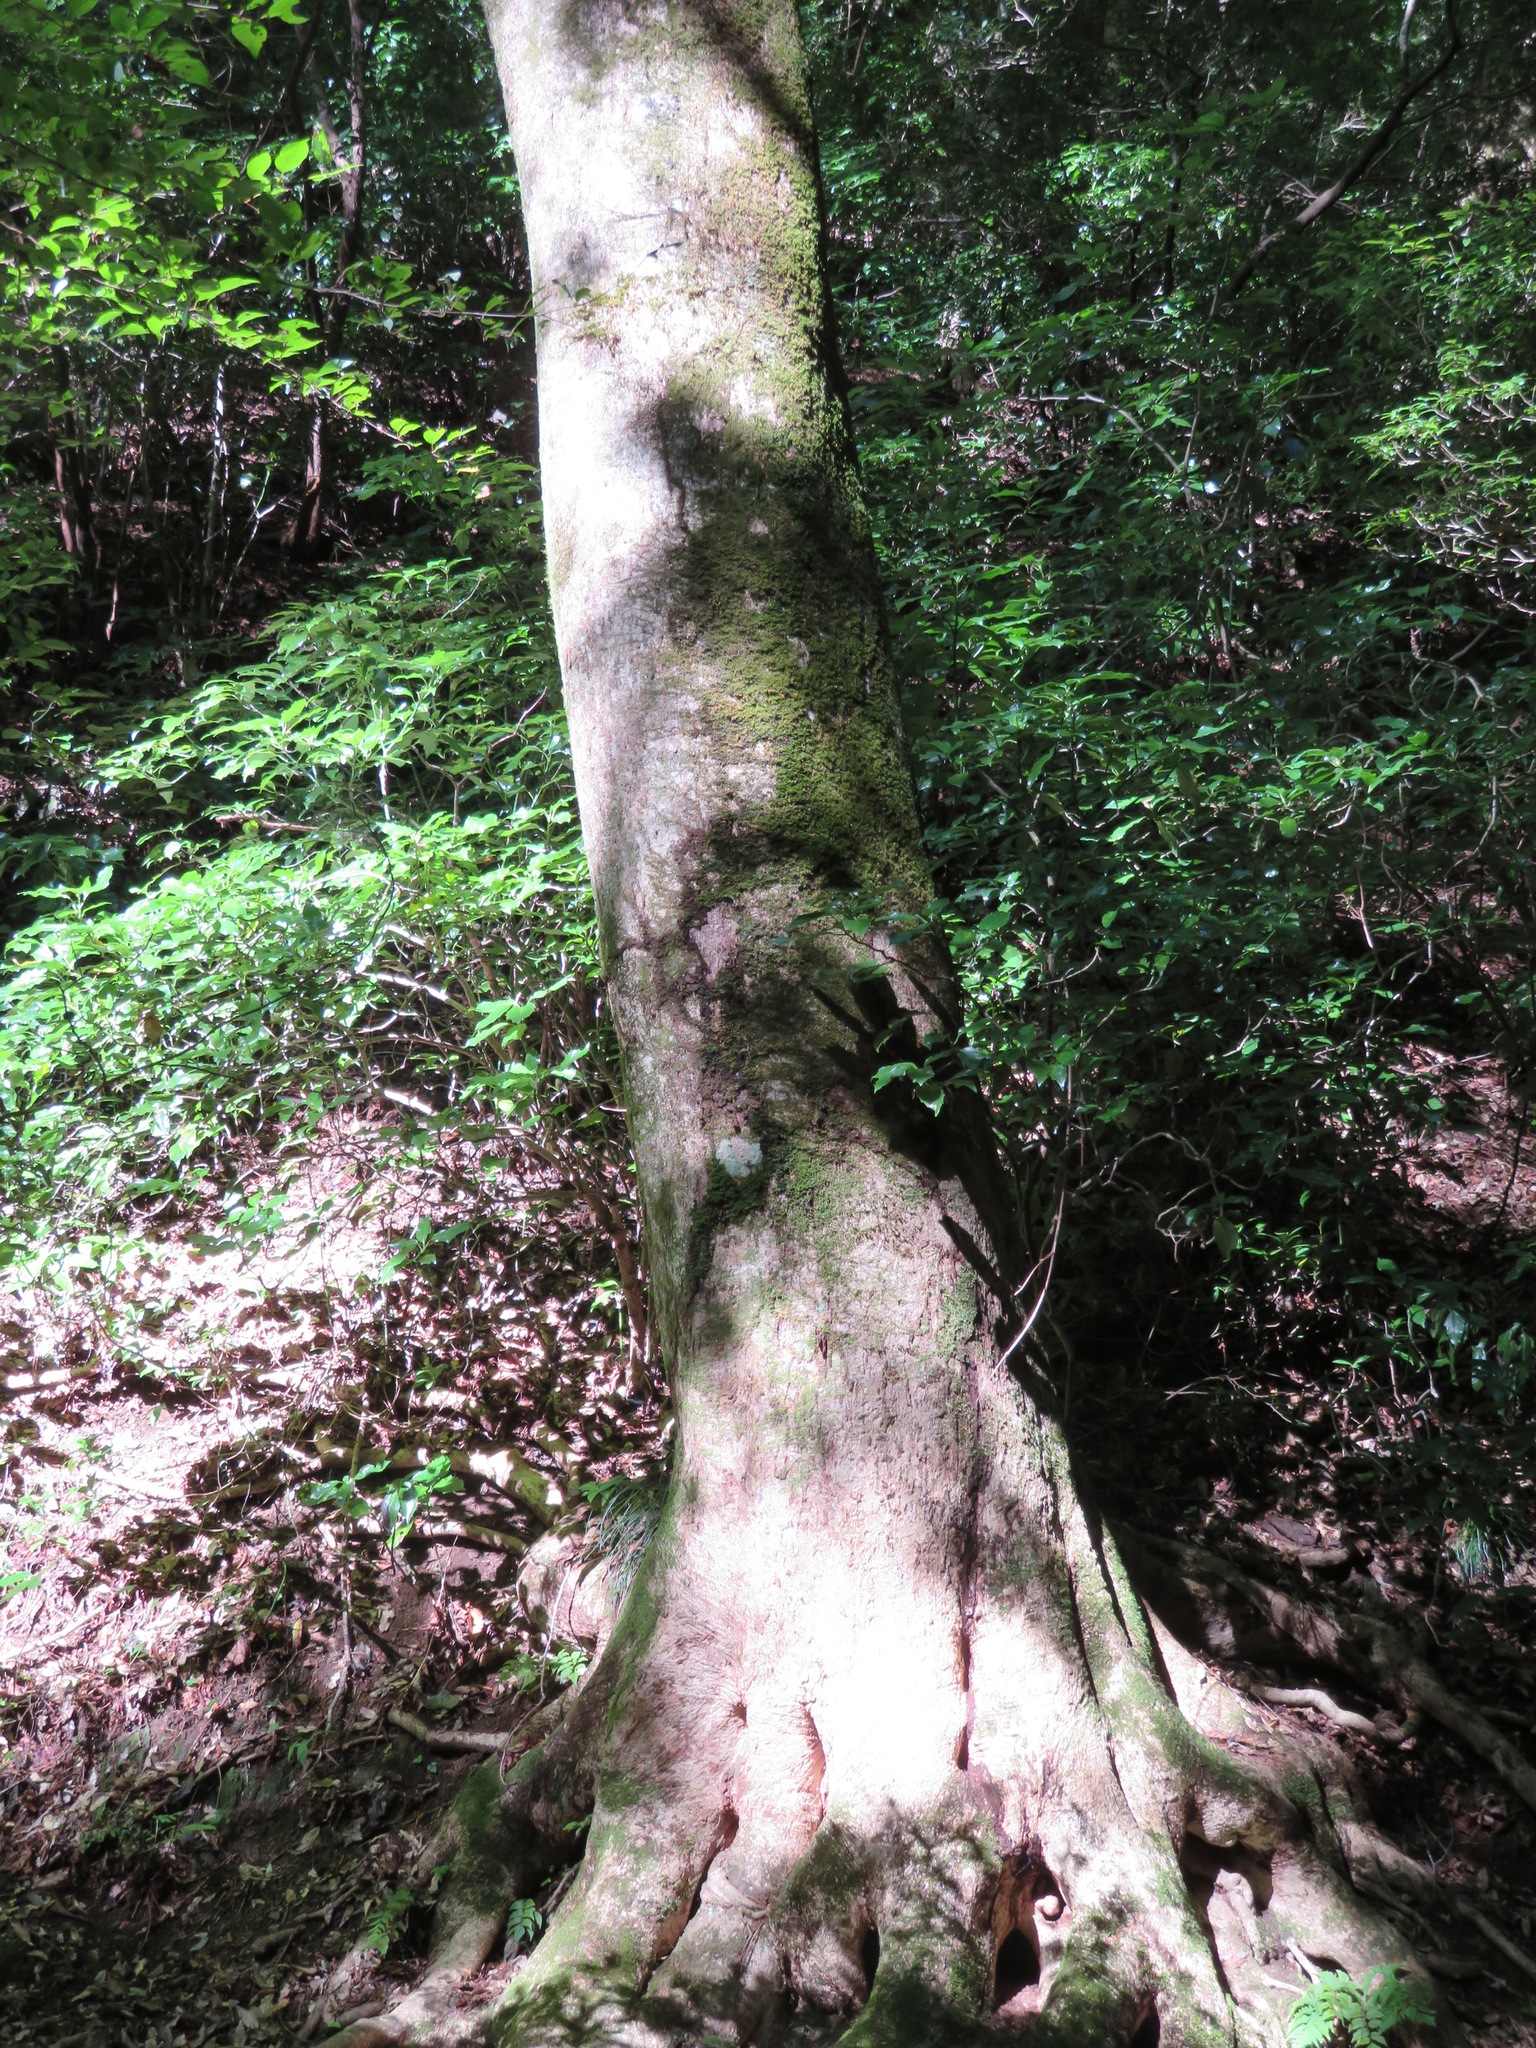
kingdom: Plantae
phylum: Tracheophyta
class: Magnoliopsida
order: Sapindales
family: Sapindaceae
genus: Acer
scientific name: Acer pictum
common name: The painted maple
